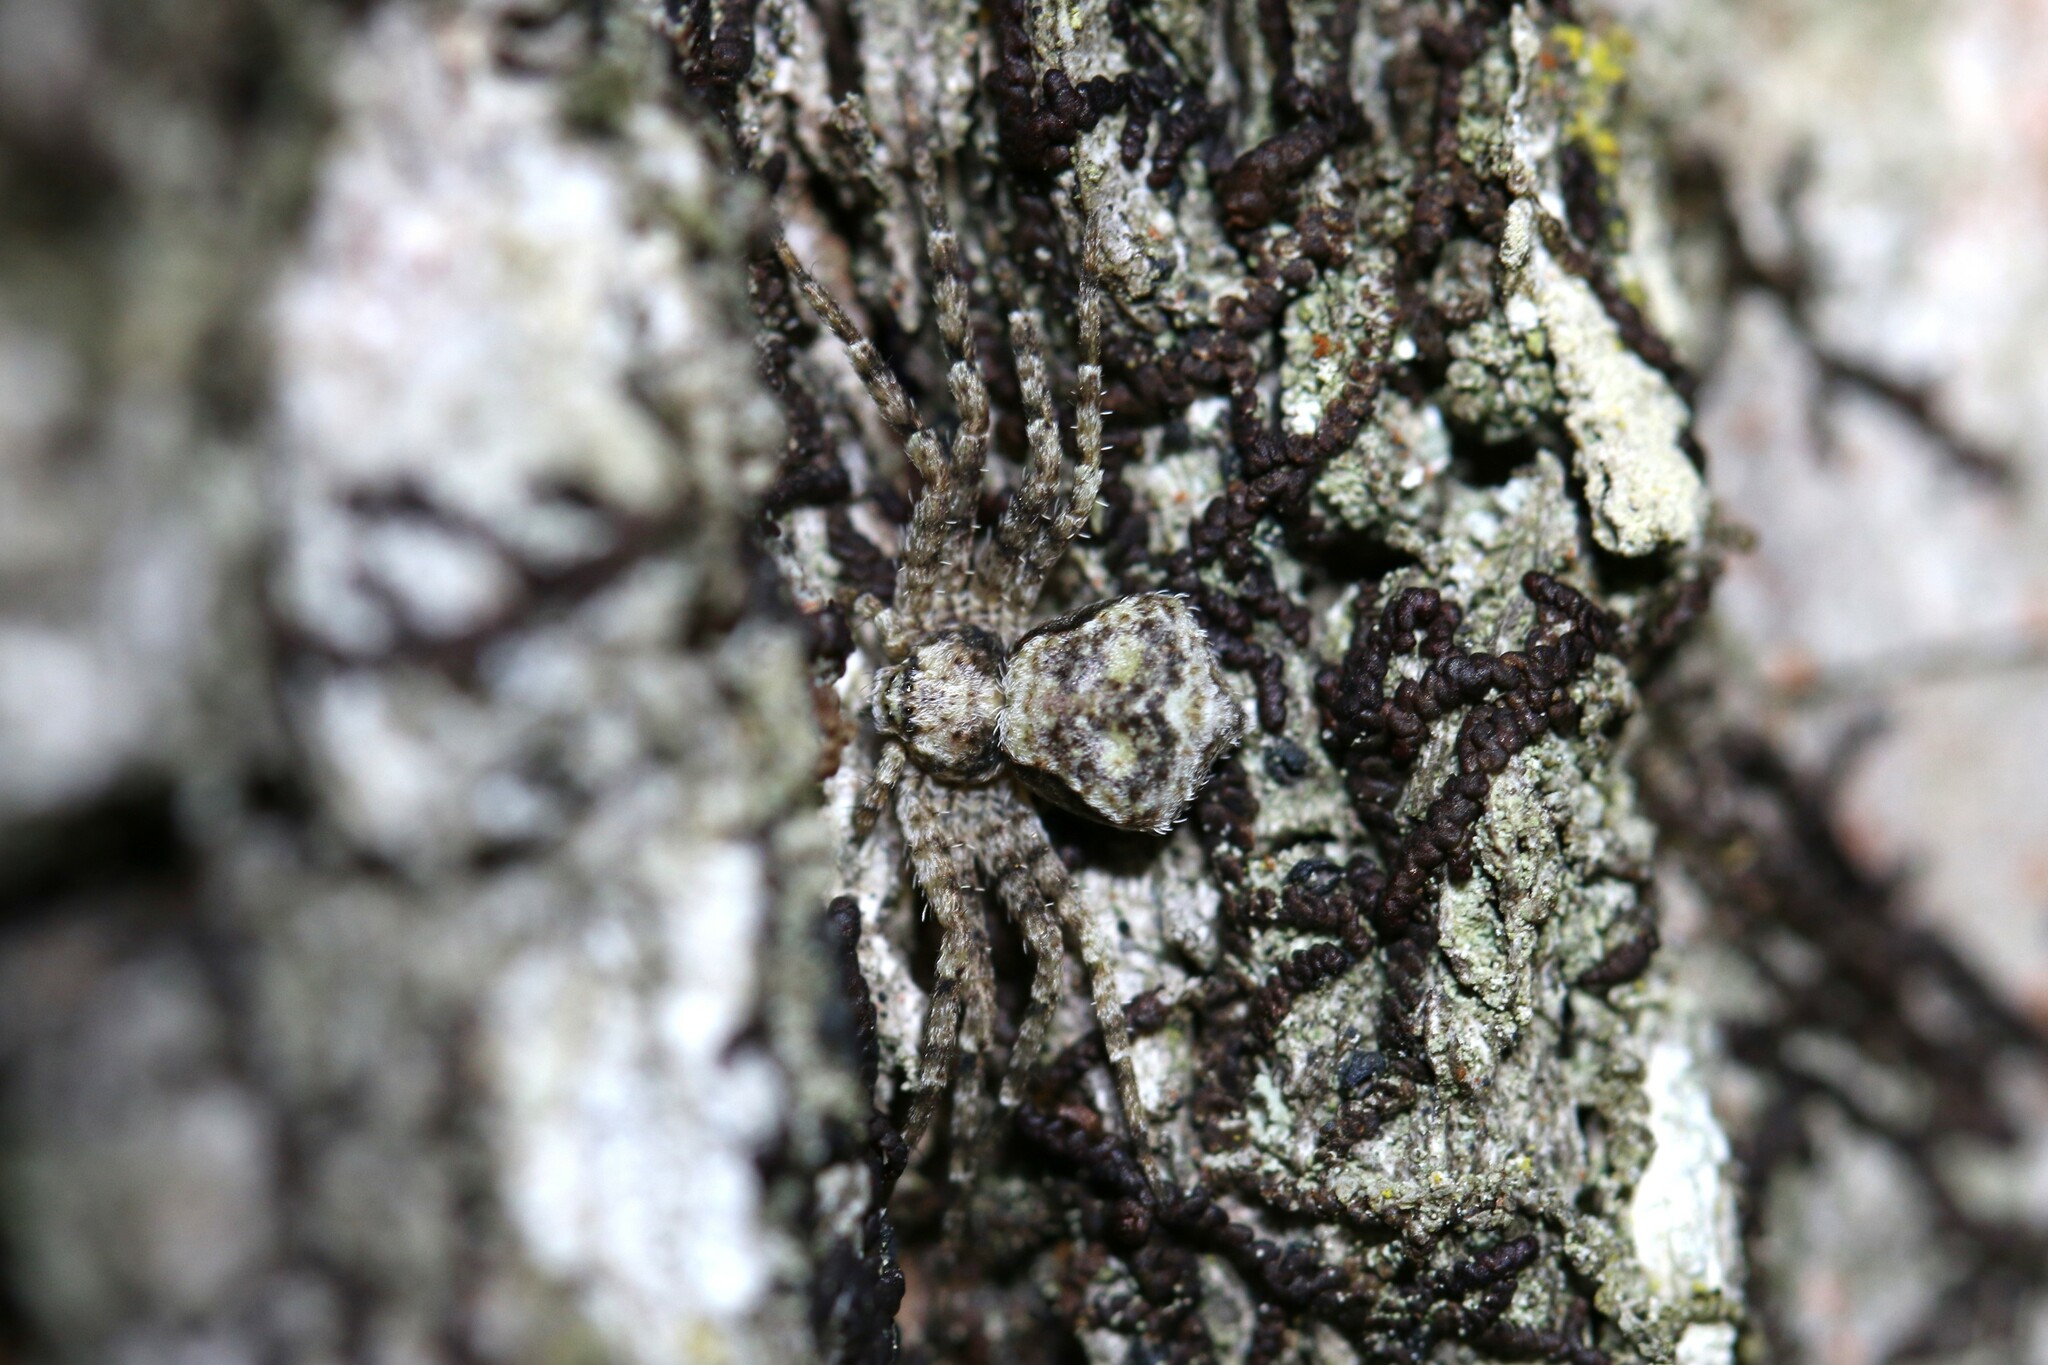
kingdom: Animalia
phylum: Arthropoda
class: Arachnida
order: Araneae
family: Philodromidae
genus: Artanes
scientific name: Artanes
